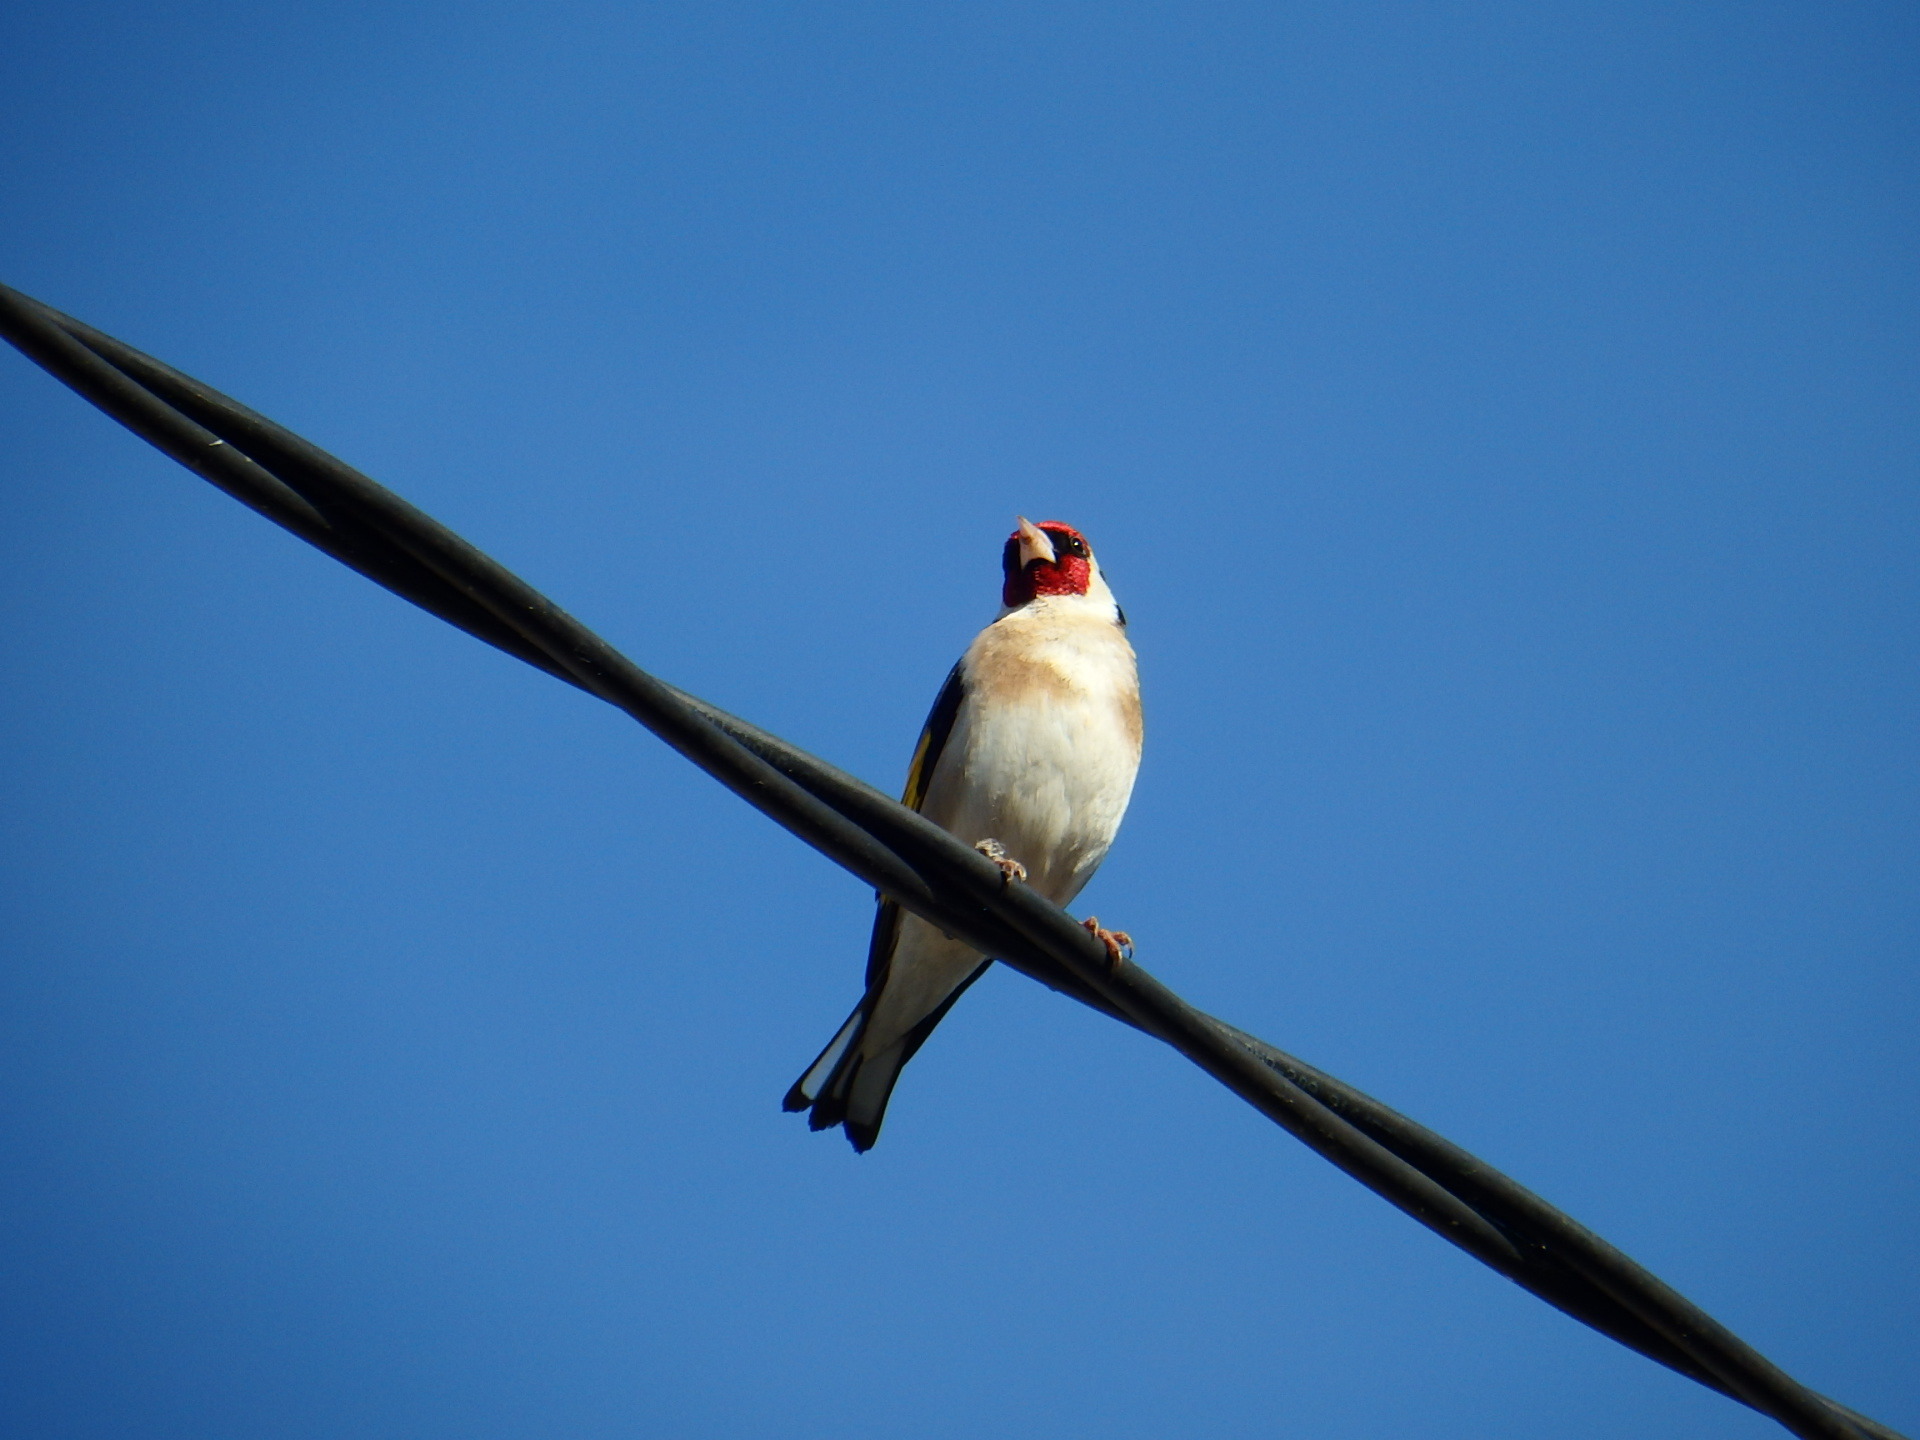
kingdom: Animalia
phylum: Chordata
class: Aves
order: Passeriformes
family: Fringillidae
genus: Carduelis
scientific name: Carduelis carduelis
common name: European goldfinch
